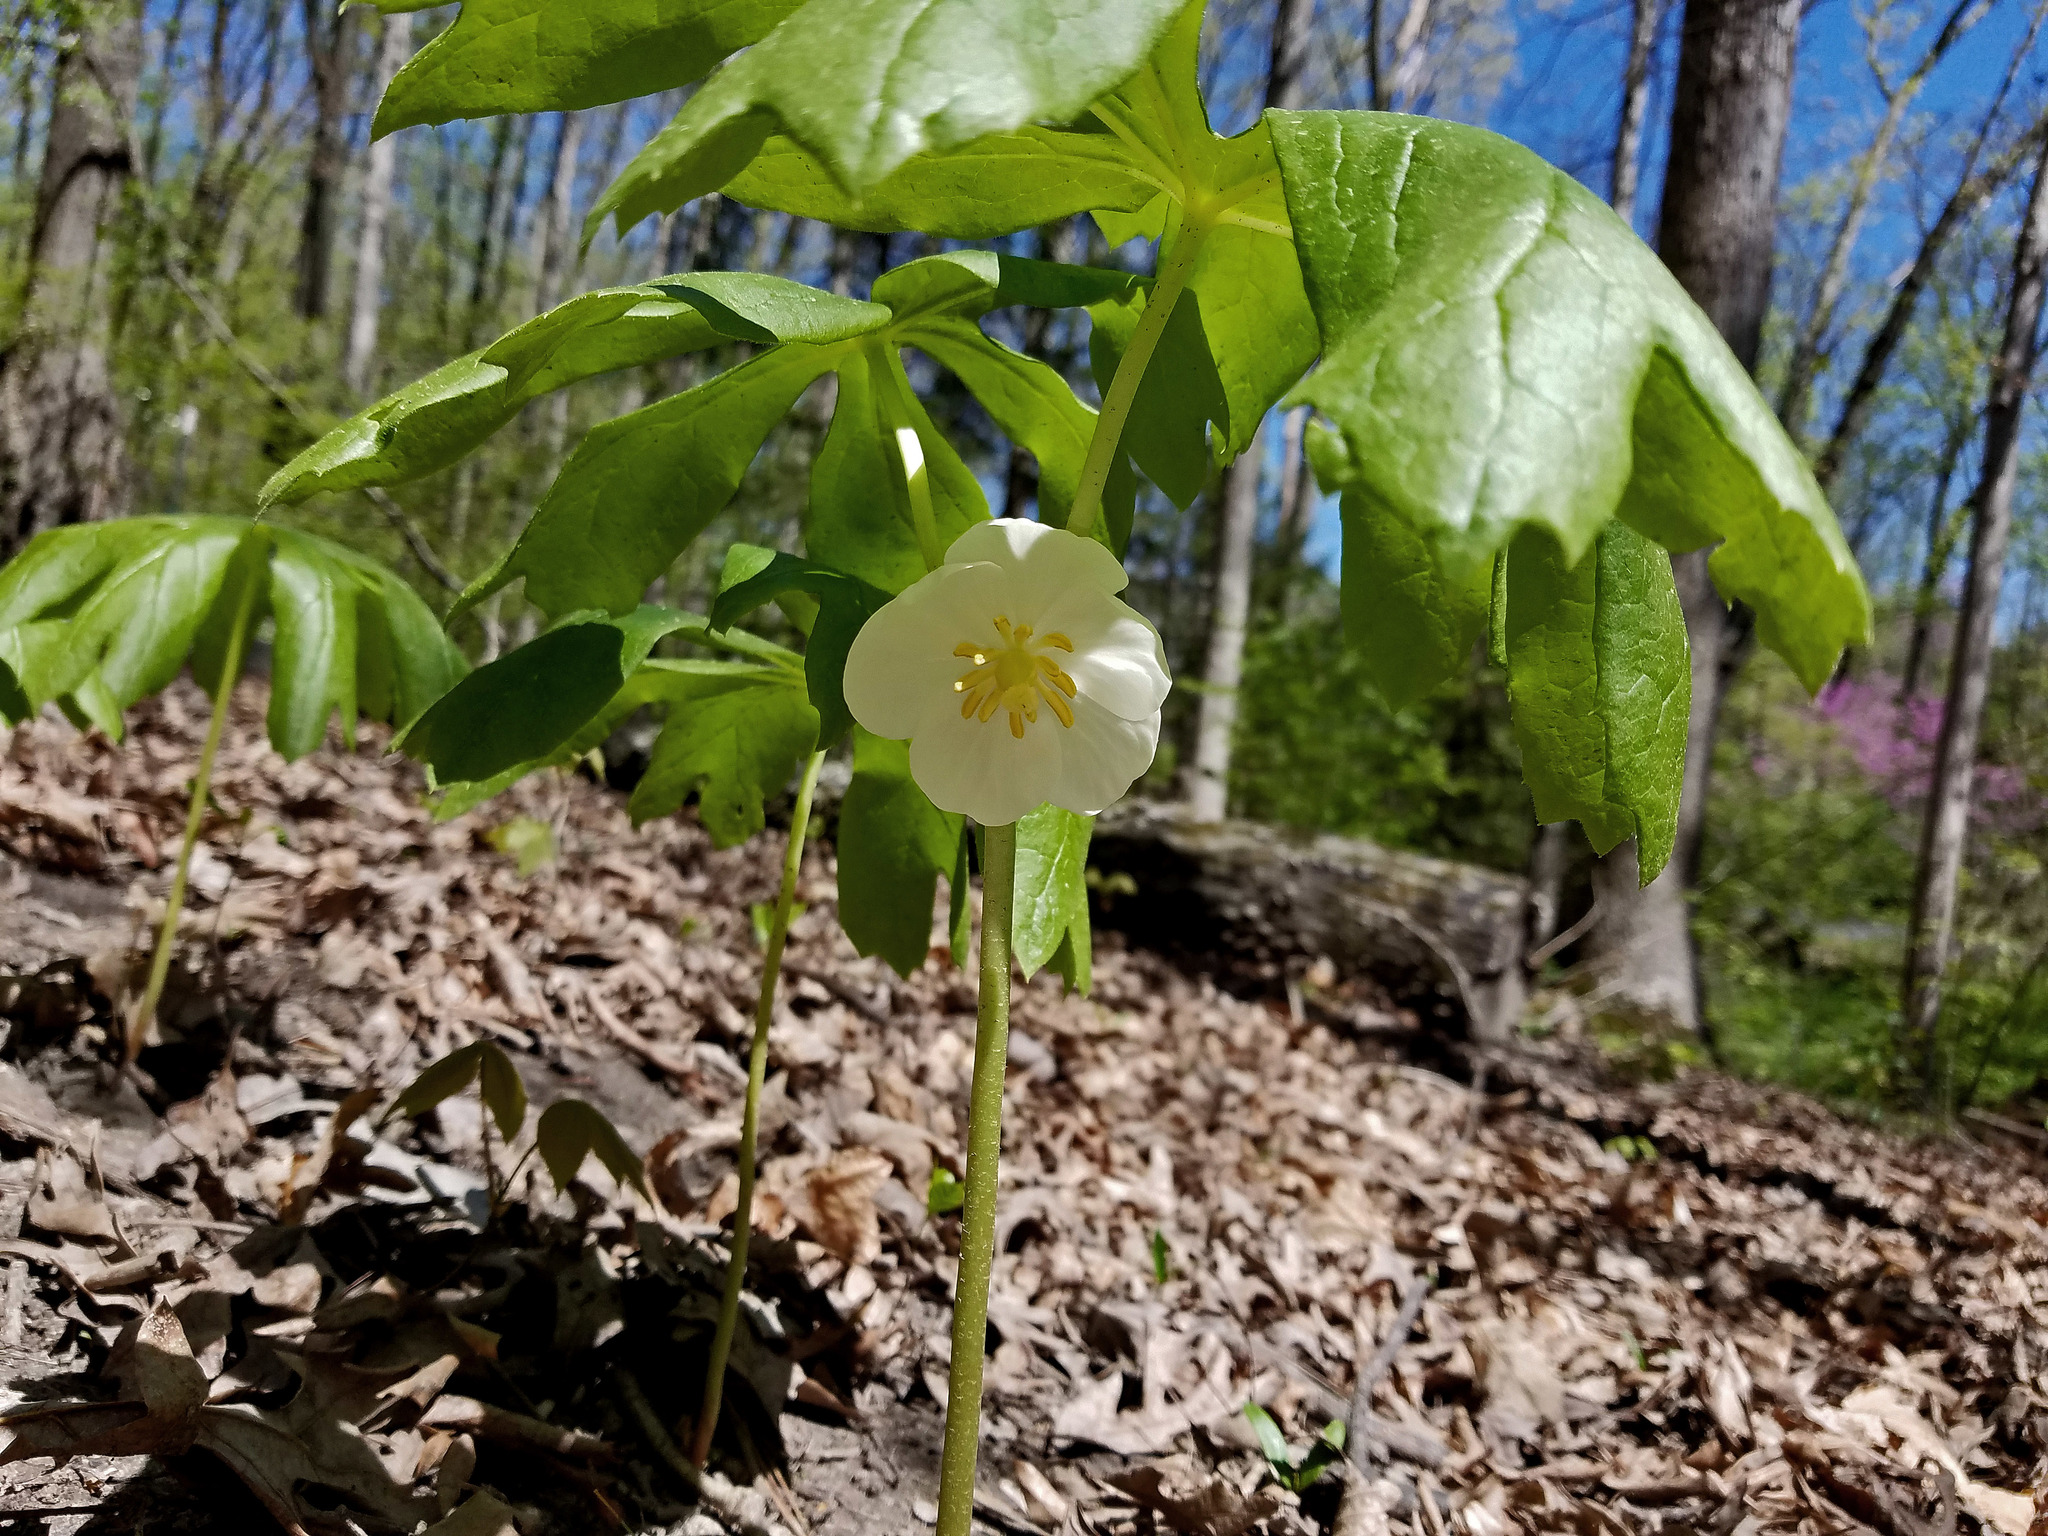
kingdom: Plantae
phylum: Tracheophyta
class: Magnoliopsida
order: Ranunculales
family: Berberidaceae
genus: Podophyllum
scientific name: Podophyllum peltatum
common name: Wild mandrake
